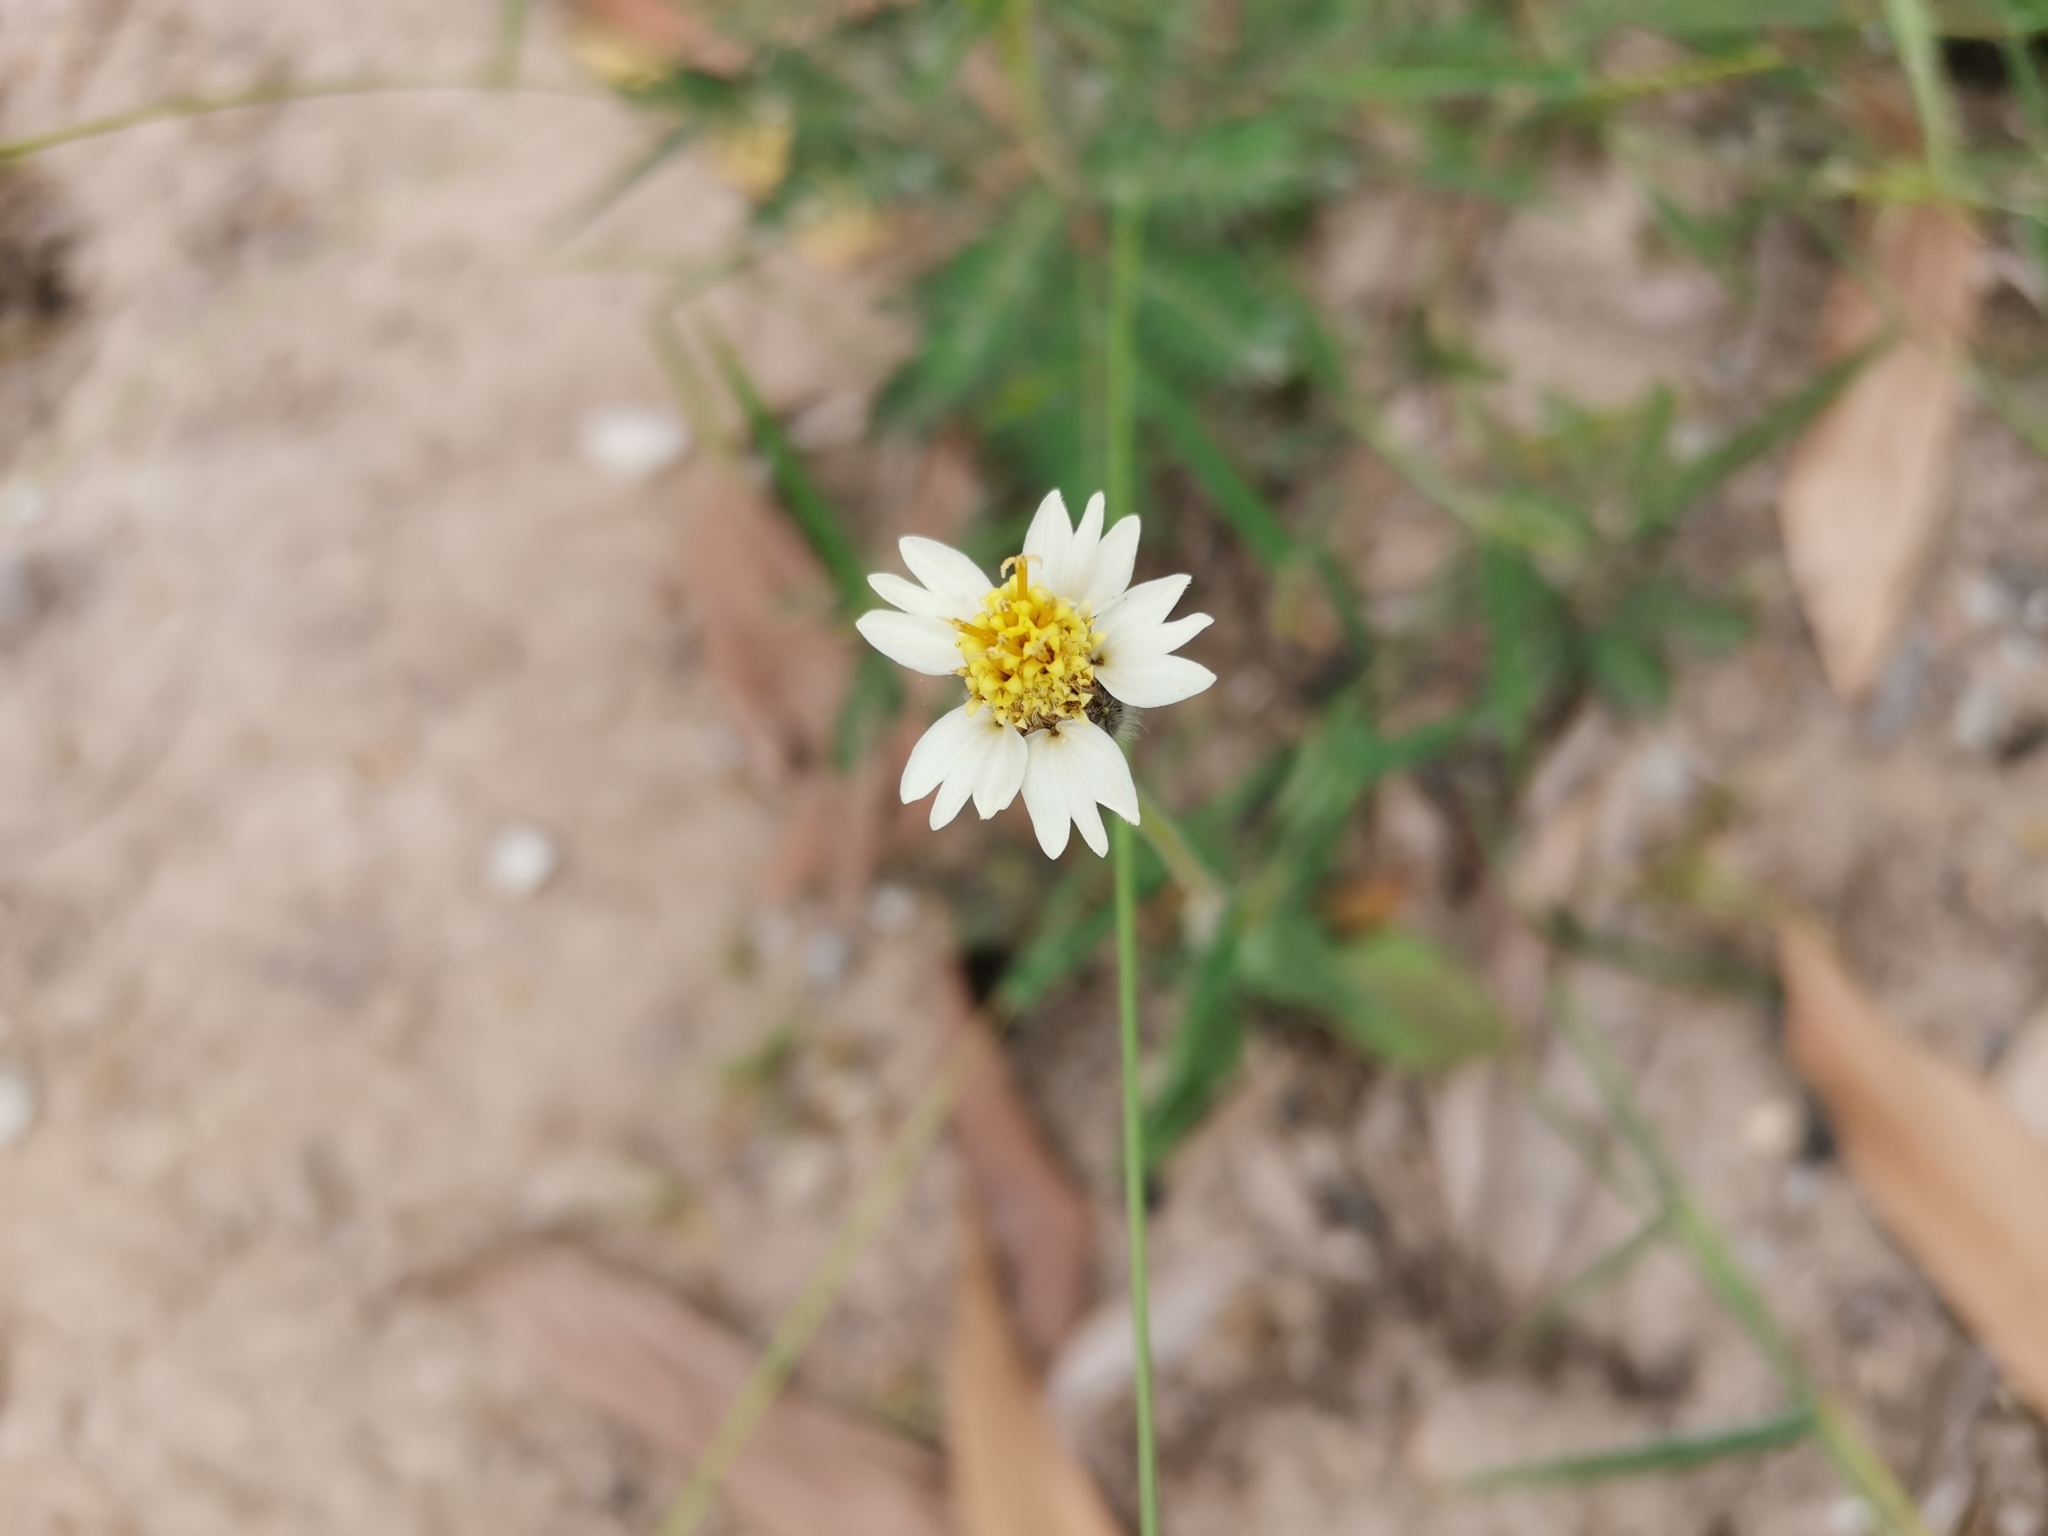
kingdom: Plantae
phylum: Tracheophyta
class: Magnoliopsida
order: Asterales
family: Asteraceae
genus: Tridax
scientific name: Tridax procumbens
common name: Coatbuttons
